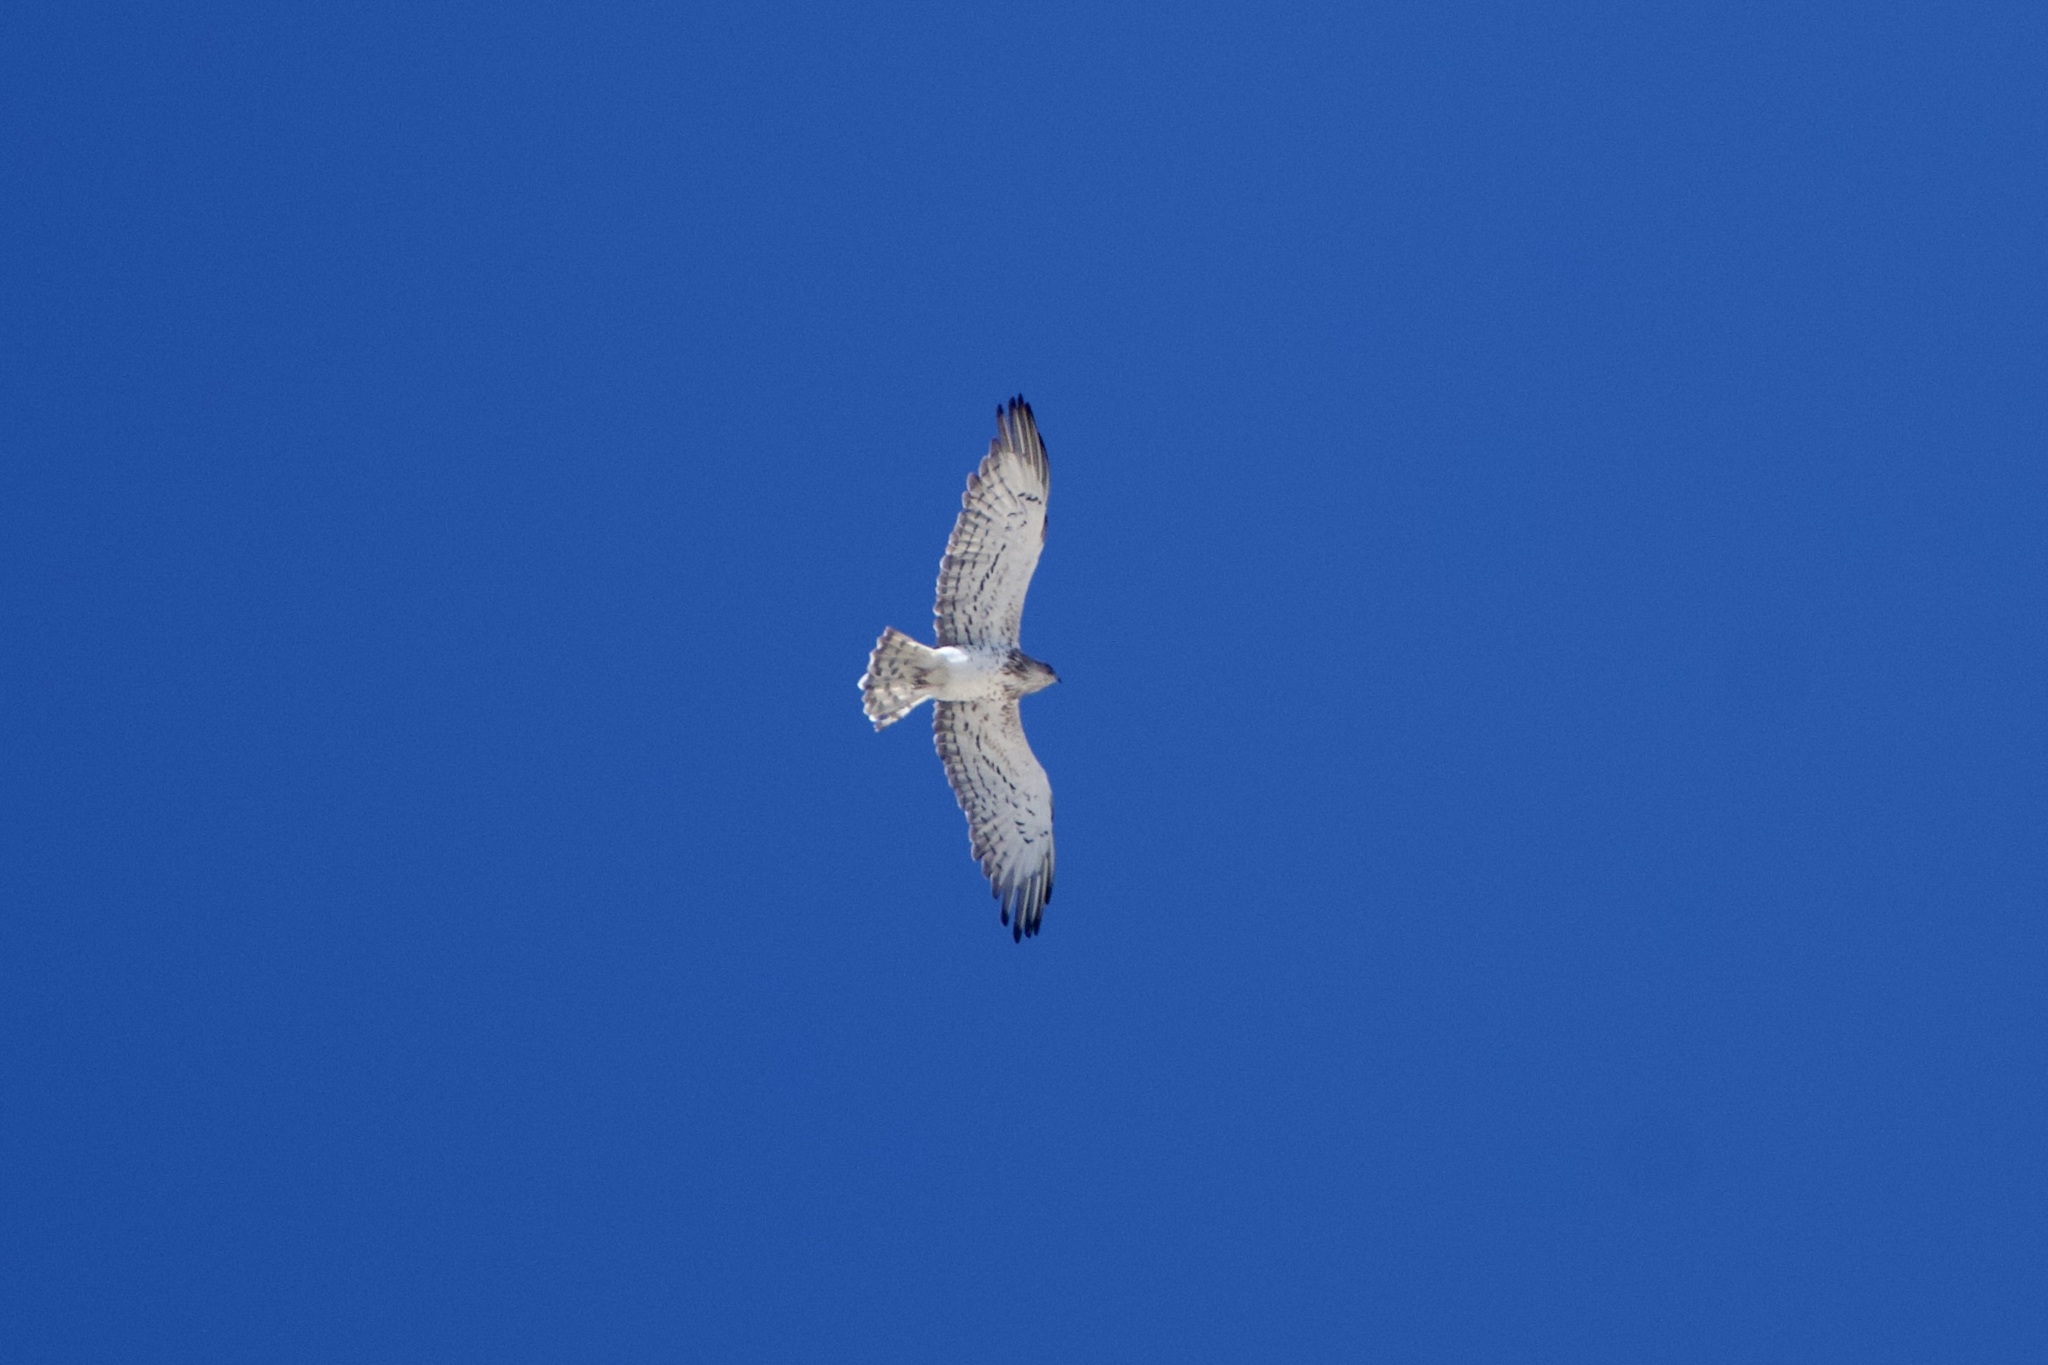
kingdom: Animalia
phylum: Chordata
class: Aves
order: Accipitriformes
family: Accipitridae
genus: Circaetus
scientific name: Circaetus gallicus
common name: Short-toed snake eagle
